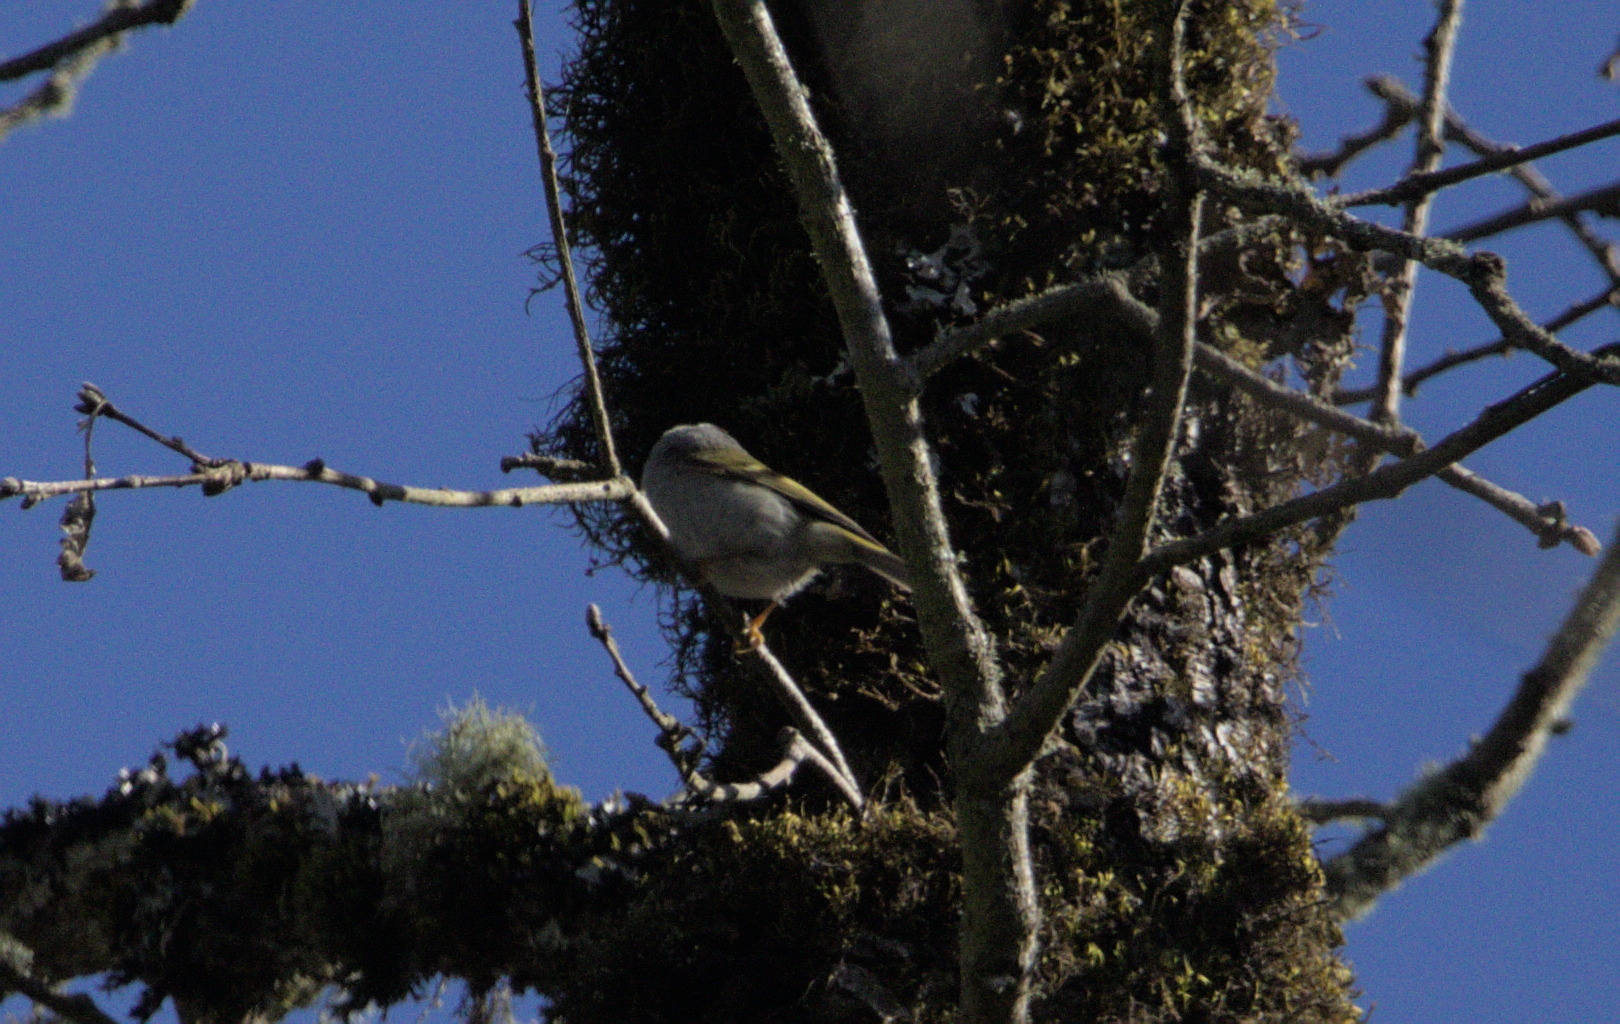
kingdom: Animalia
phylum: Chordata
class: Aves
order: Passeriformes
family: Regulidae
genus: Regulus
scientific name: Regulus calendula
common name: Ruby-crowned kinglet
